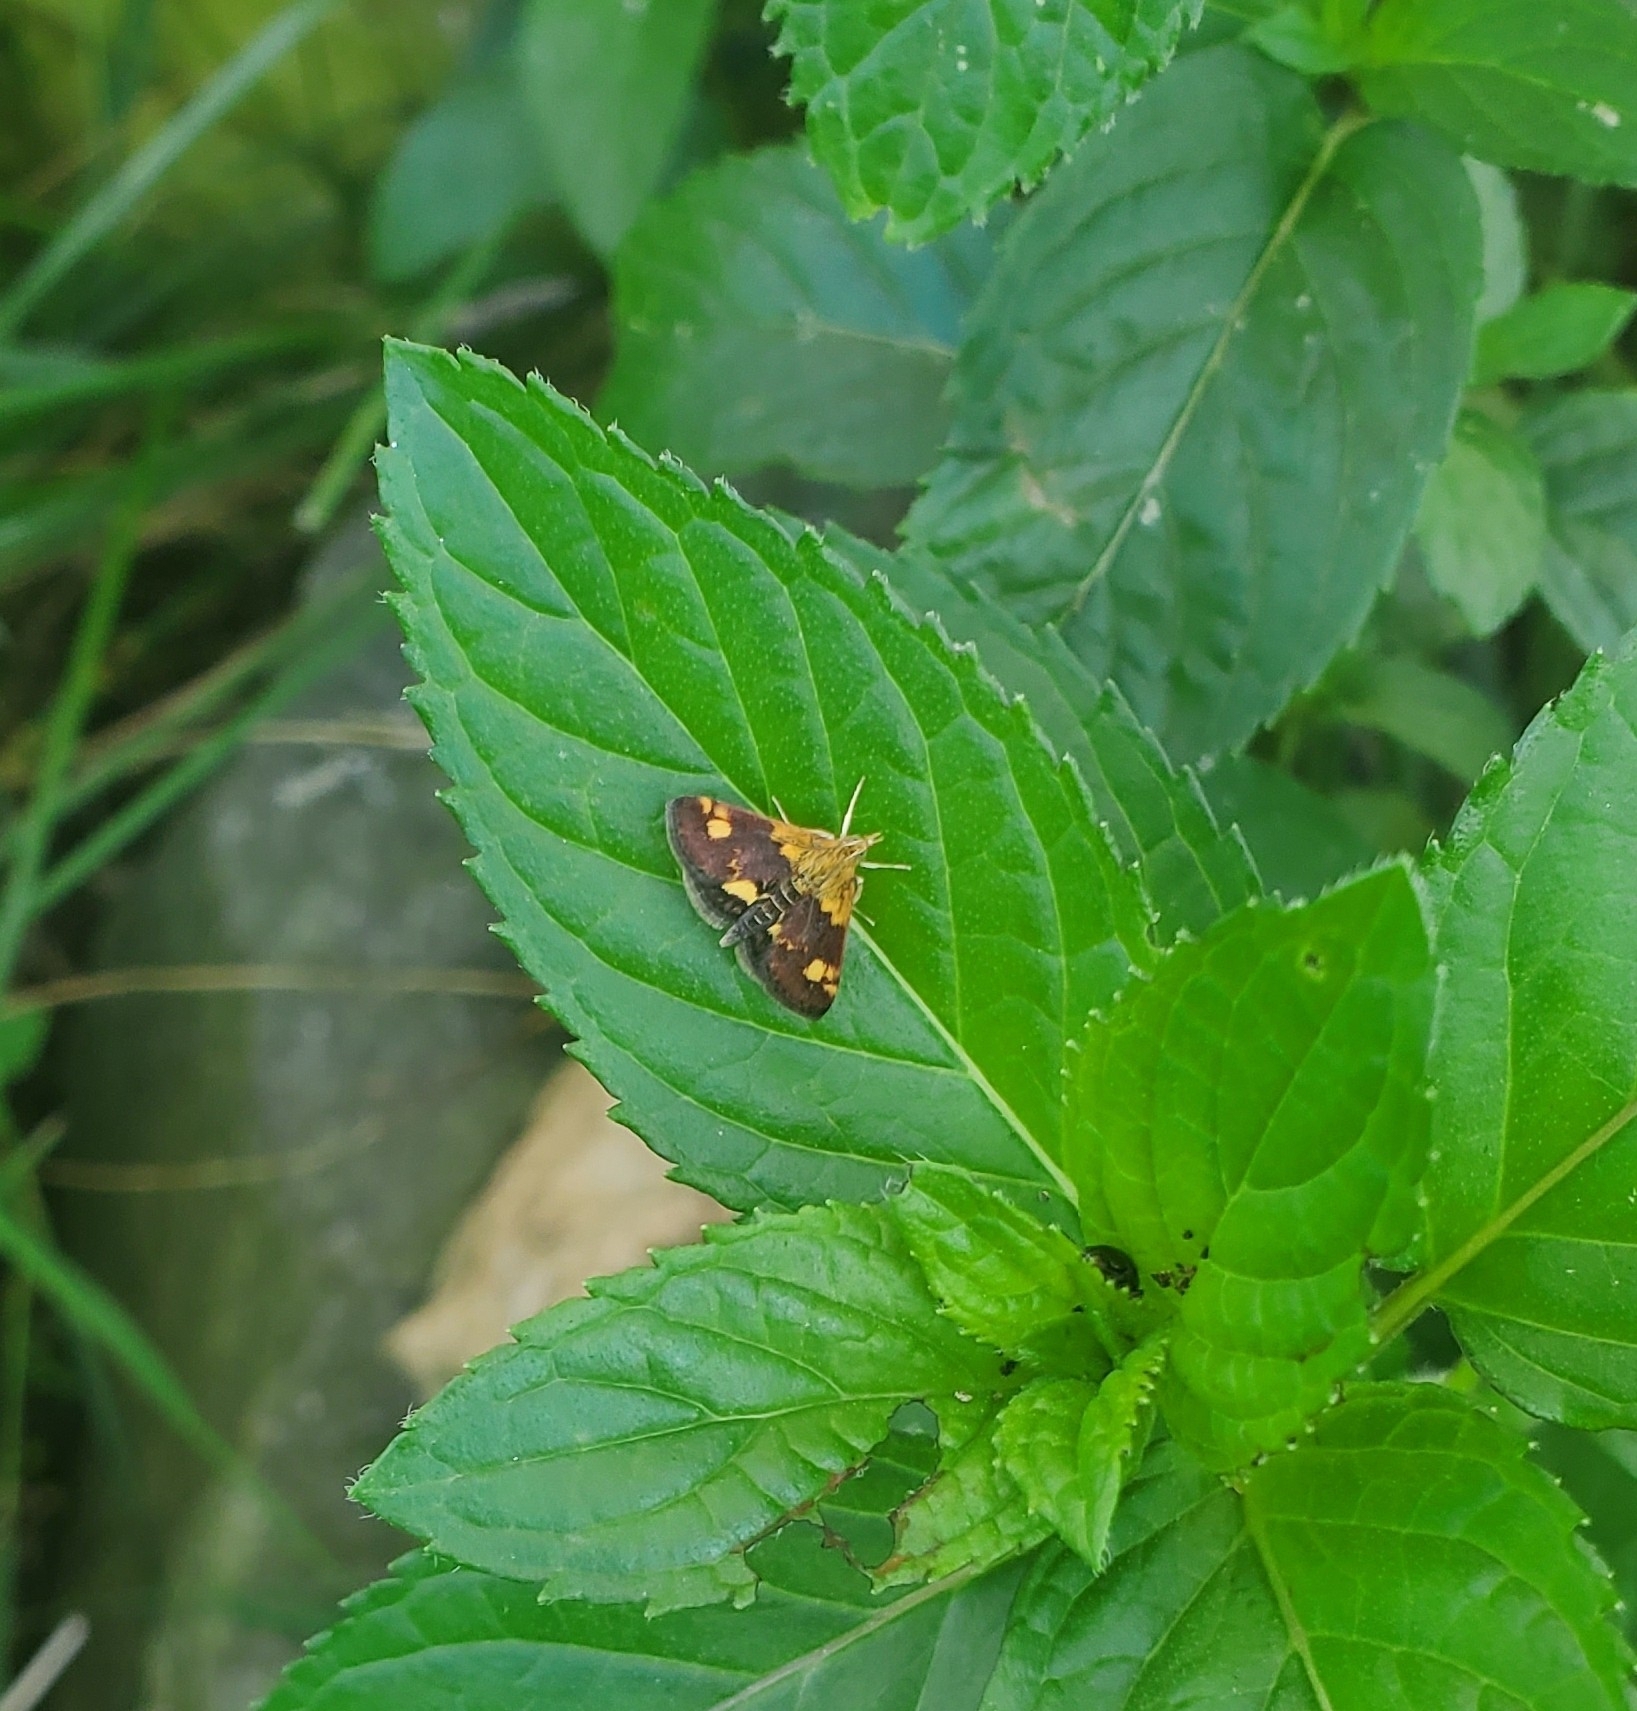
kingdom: Animalia
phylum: Arthropoda
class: Insecta
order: Lepidoptera
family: Crambidae
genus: Pyrausta
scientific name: Pyrausta orphisalis
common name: Orange mint moth
